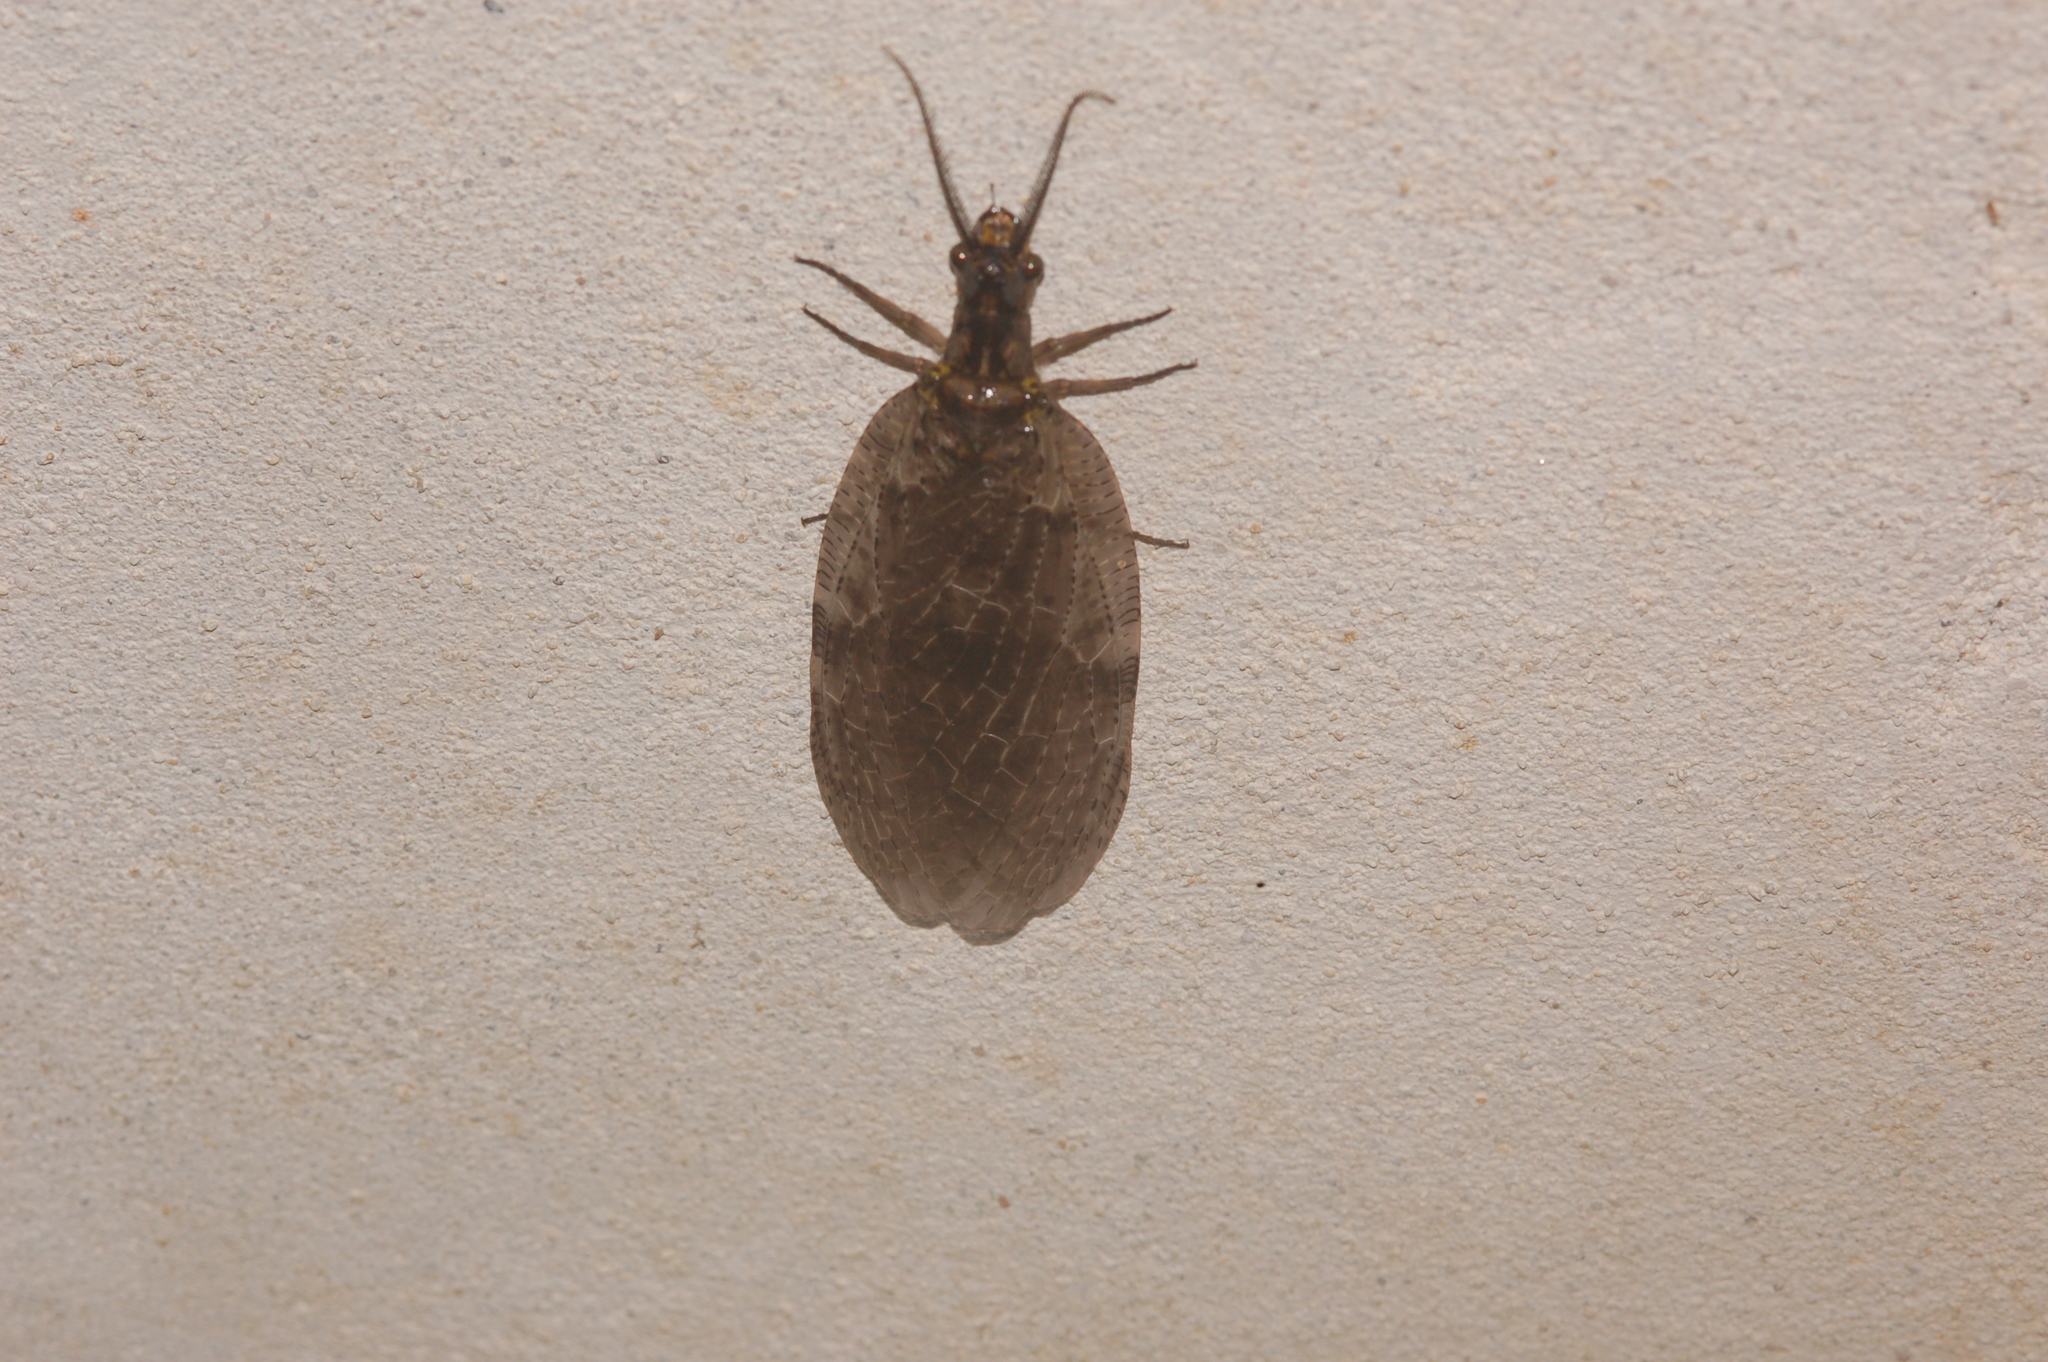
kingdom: Animalia
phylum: Arthropoda
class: Insecta
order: Megaloptera
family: Corydalidae
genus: Chauliodes
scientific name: Chauliodes pectinicornis
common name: Summer fishfly
